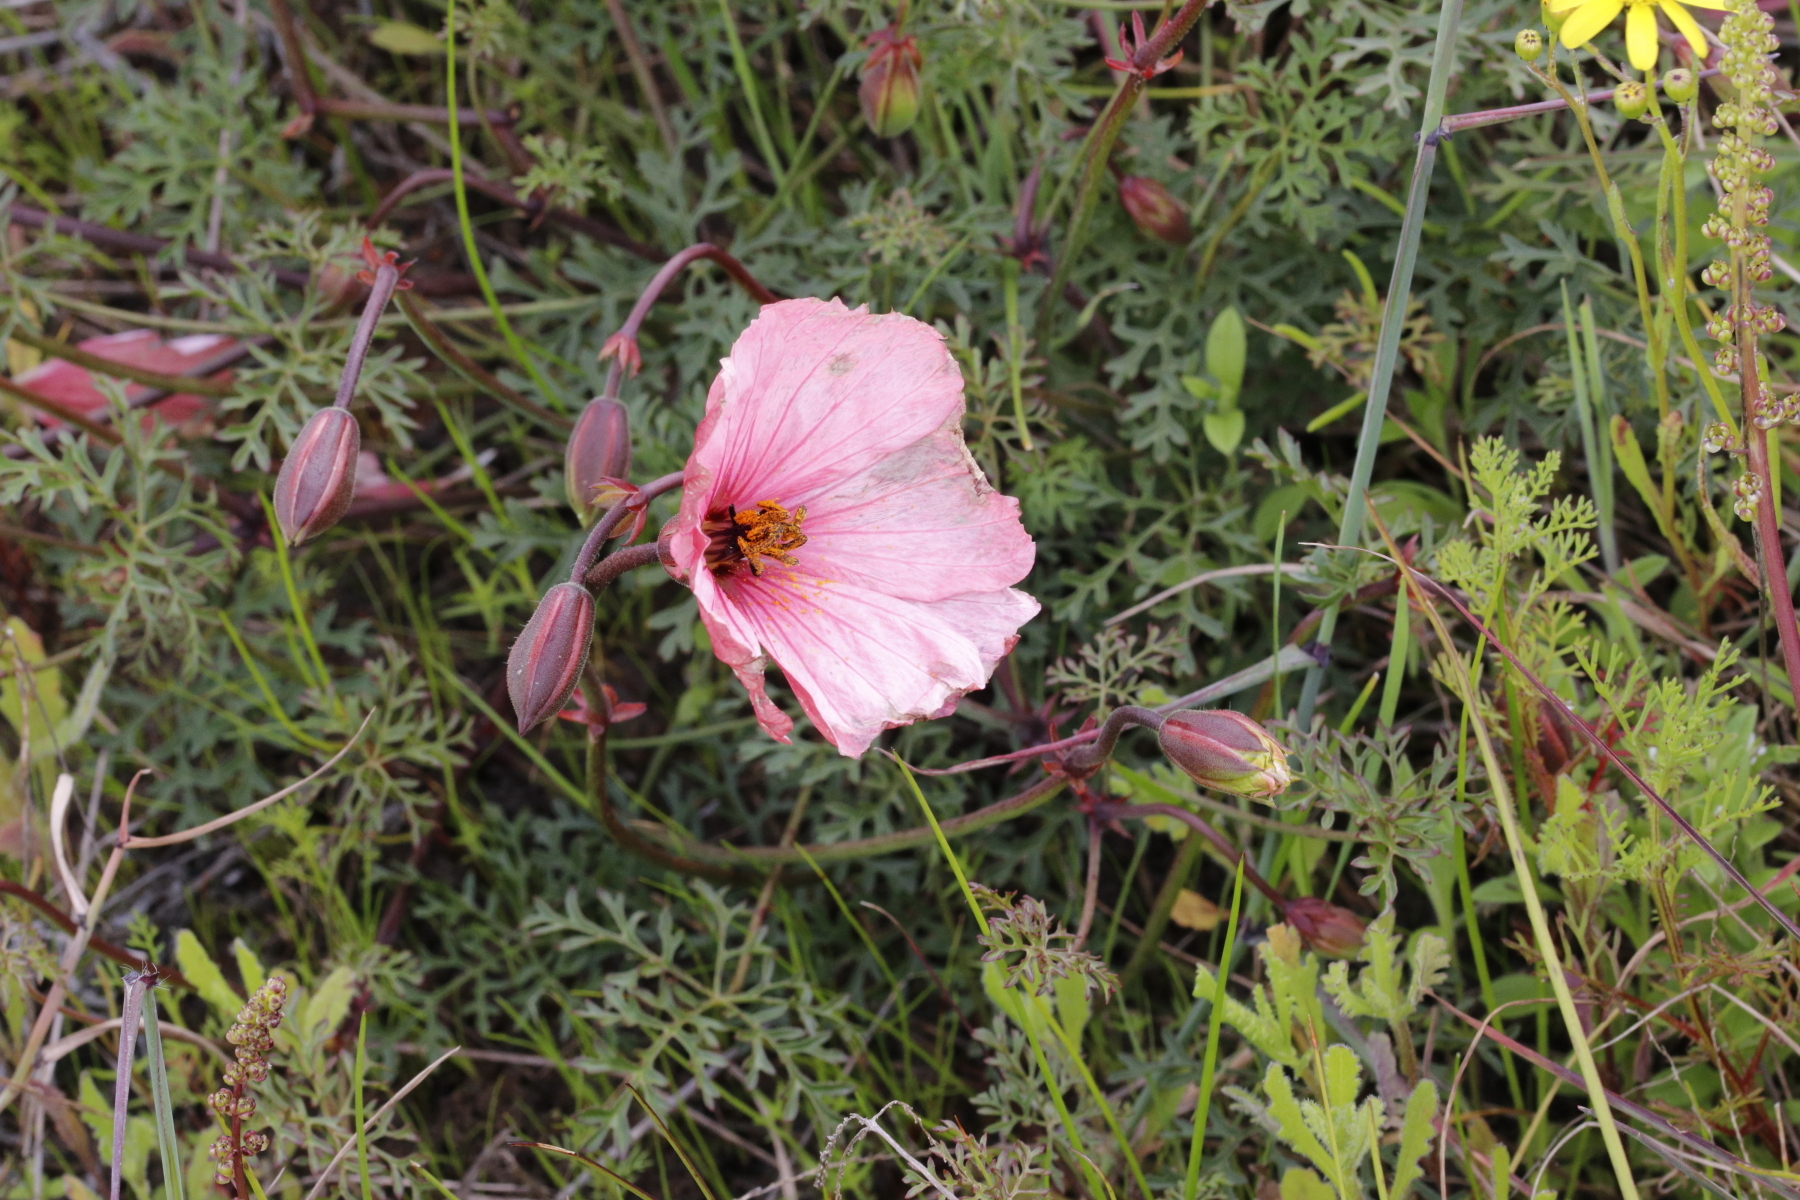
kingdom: Plantae
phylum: Tracheophyta
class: Magnoliopsida
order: Geraniales
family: Geraniaceae
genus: Monsonia
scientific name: Monsonia speciosa
